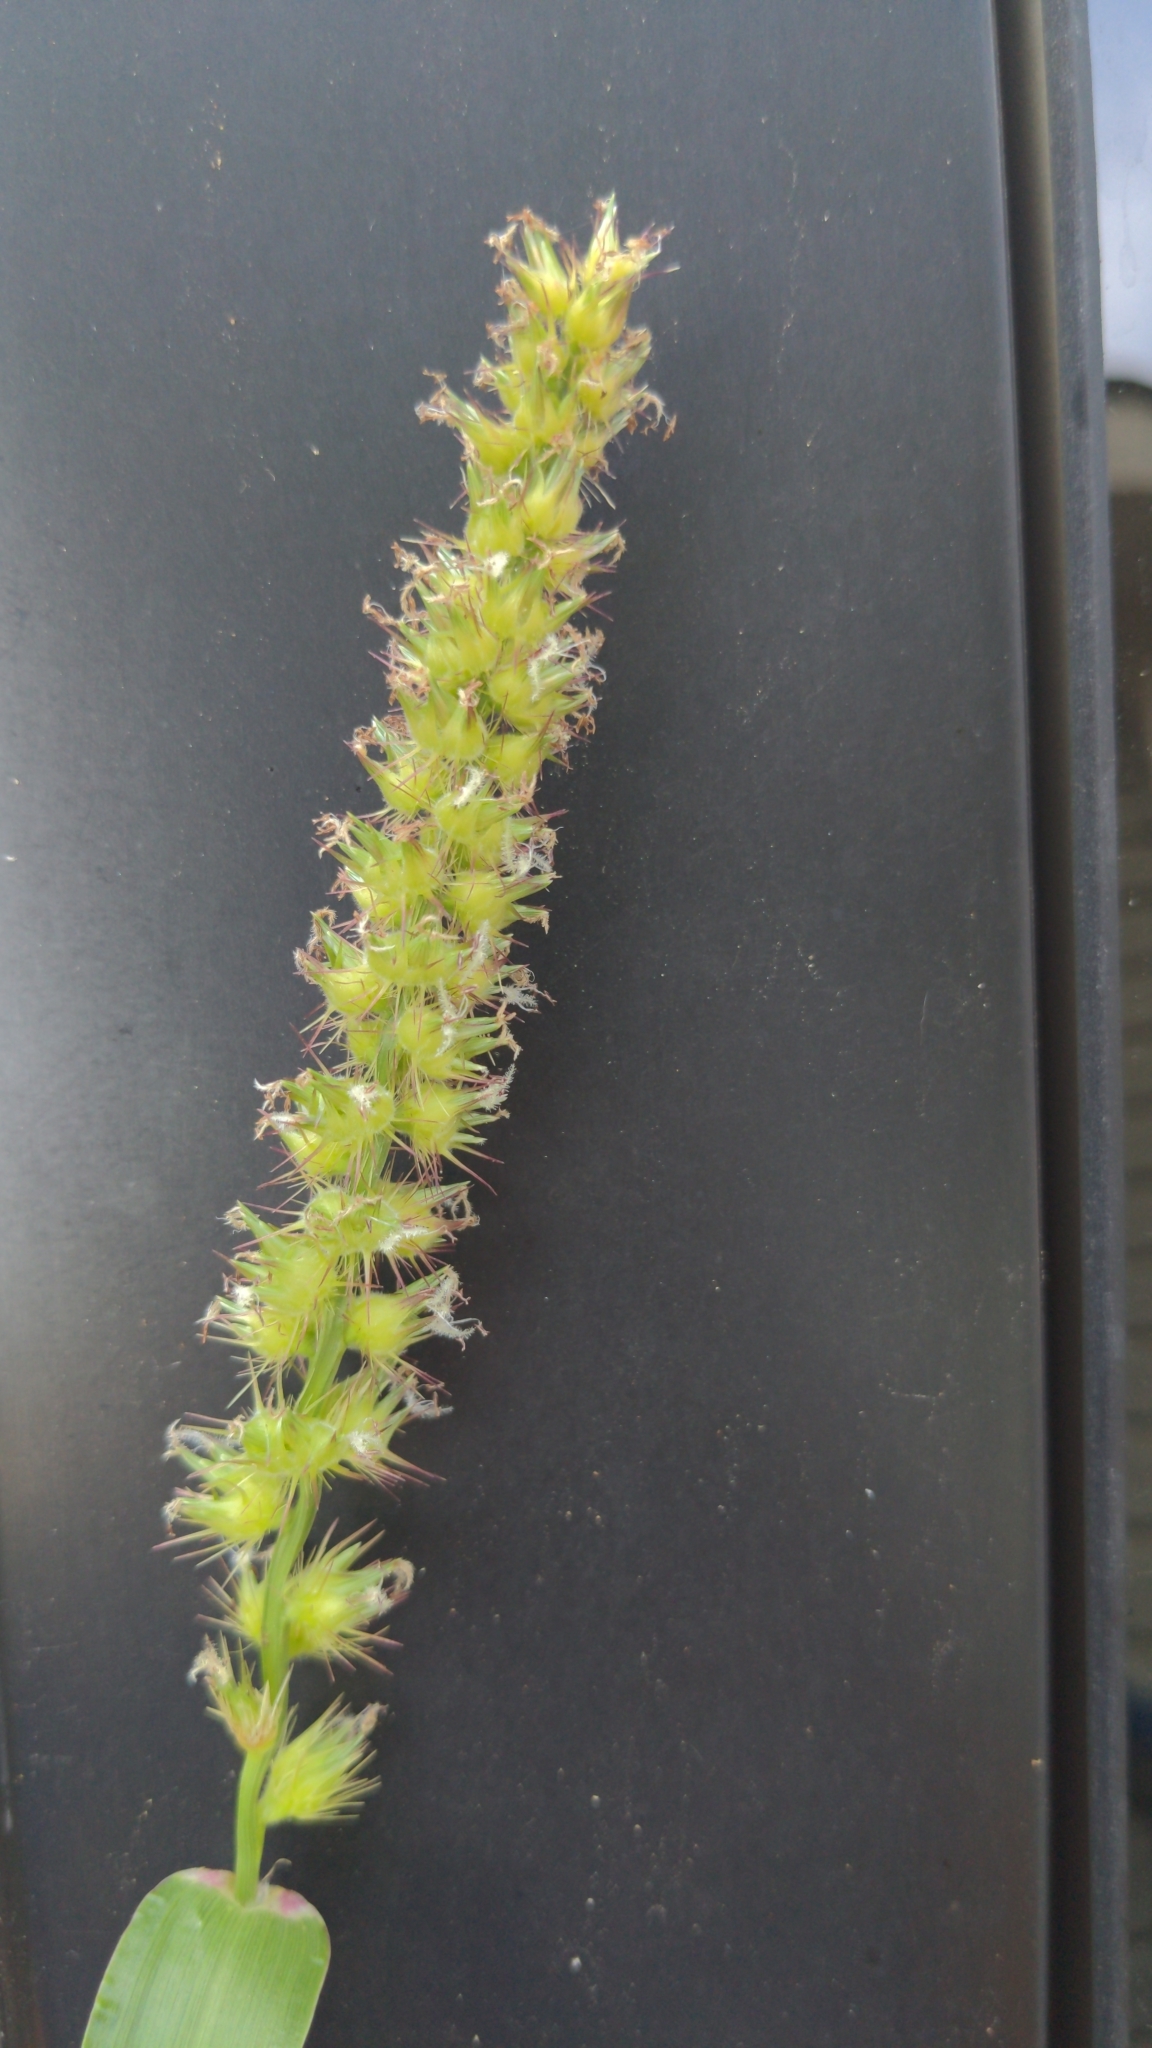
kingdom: Plantae
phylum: Tracheophyta
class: Liliopsida
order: Poales
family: Poaceae
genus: Cenchrus
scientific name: Cenchrus echinatus
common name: Southern sandbur
